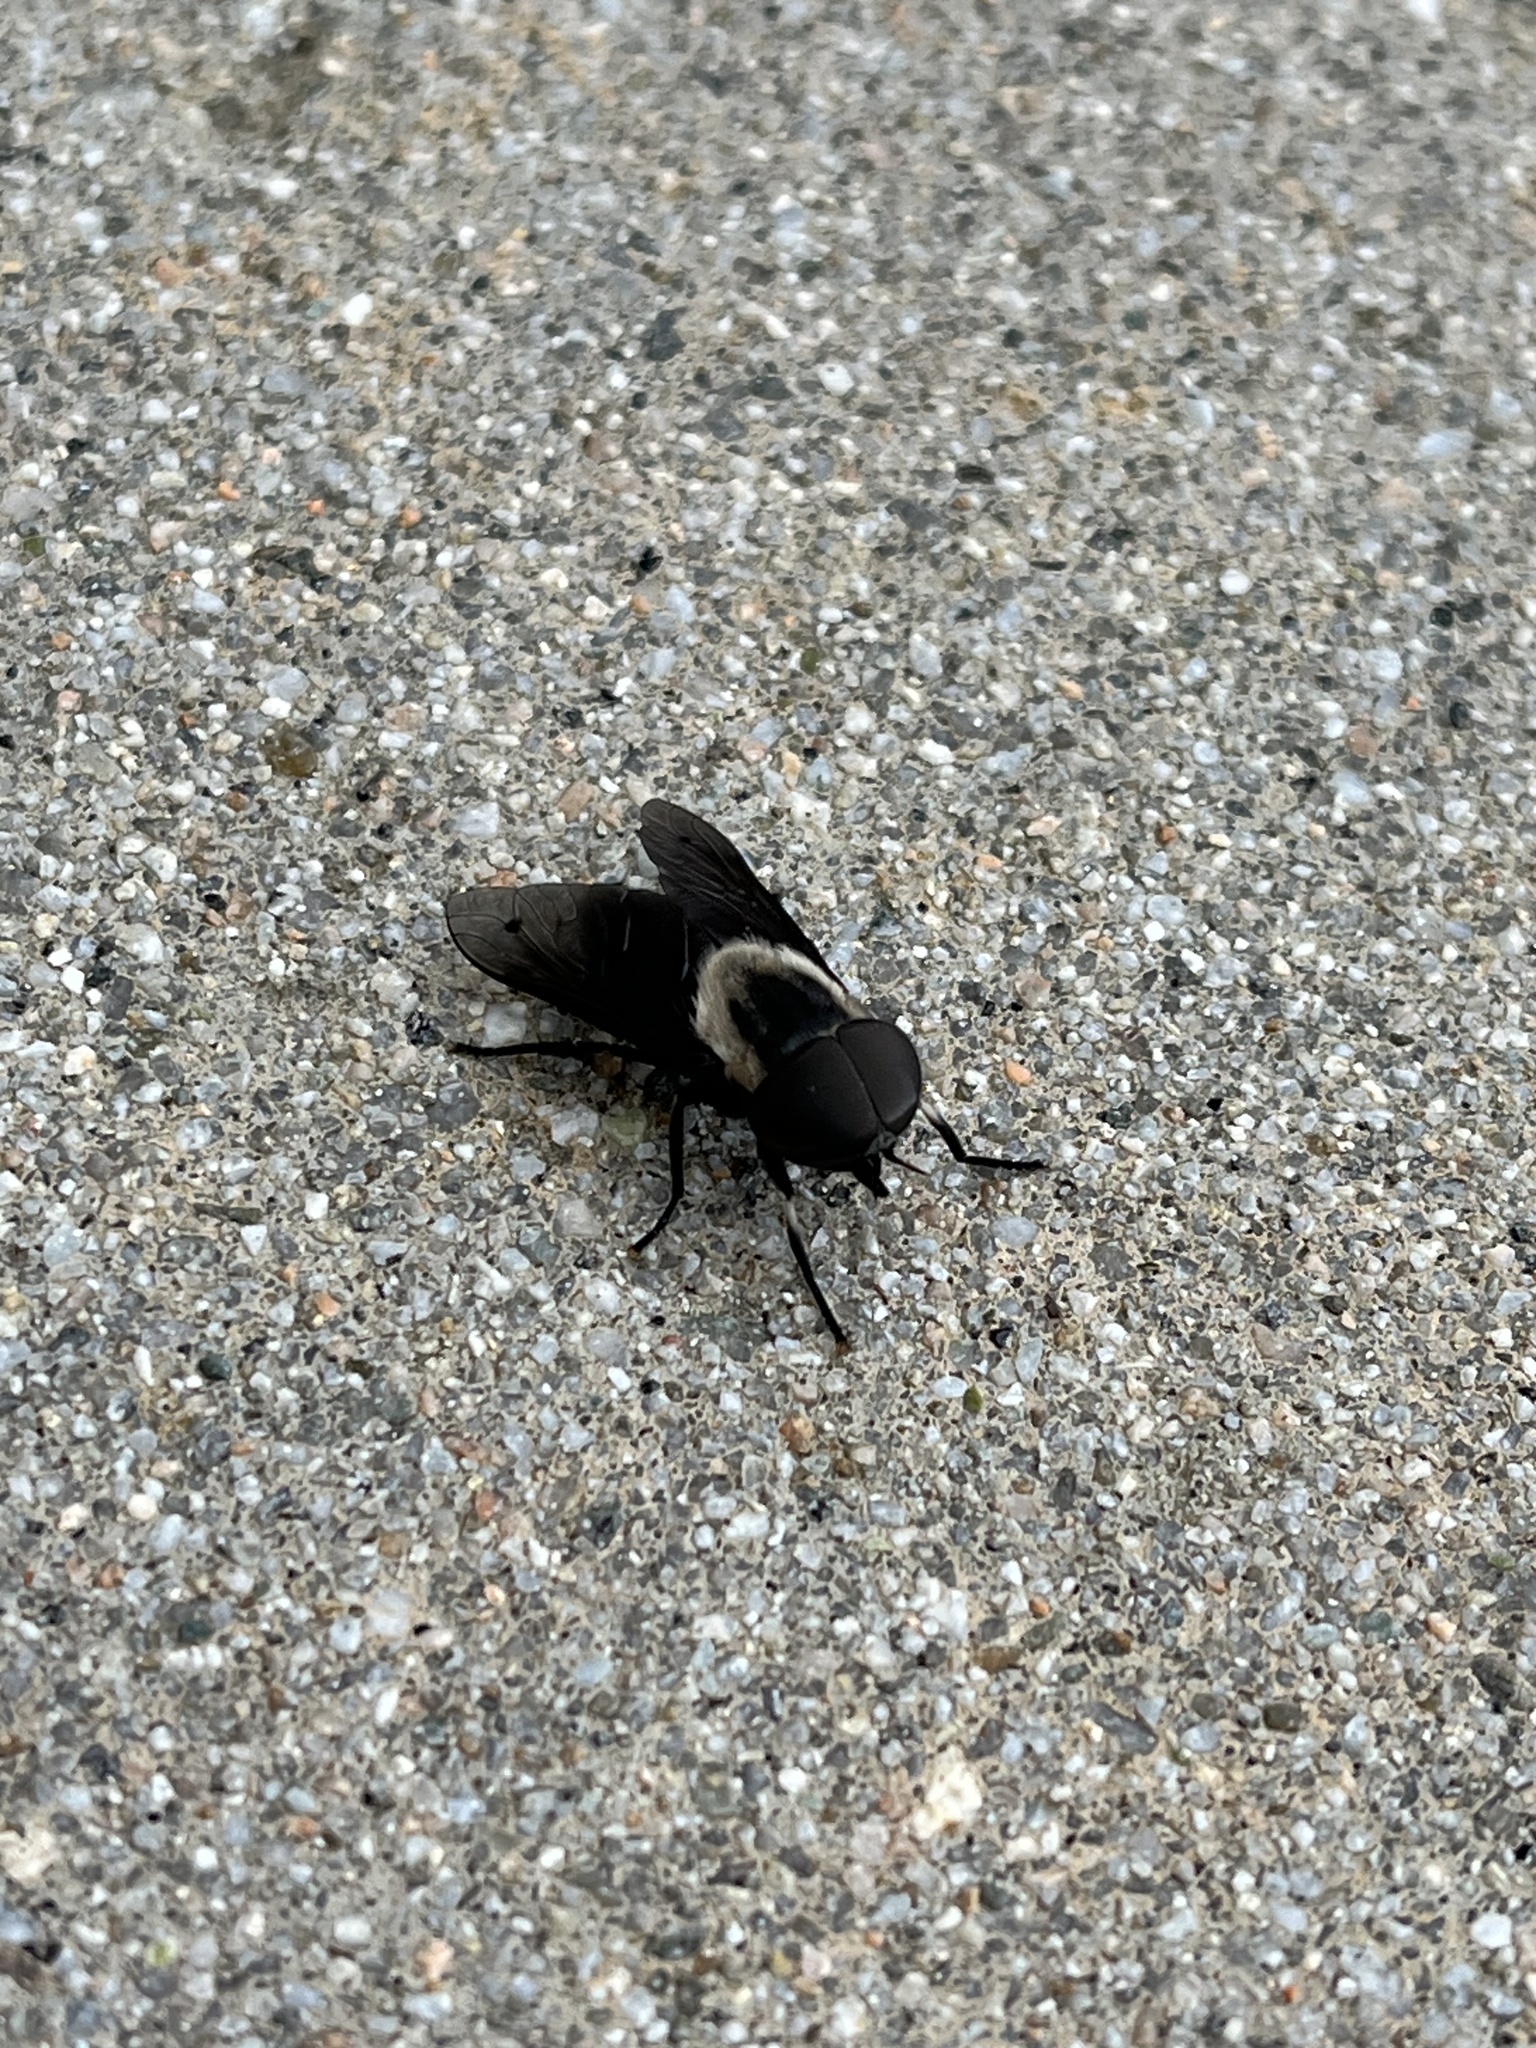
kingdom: Animalia
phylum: Arthropoda
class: Insecta
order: Diptera
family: Tabanidae
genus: Tabanus
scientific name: Tabanus punctifer
